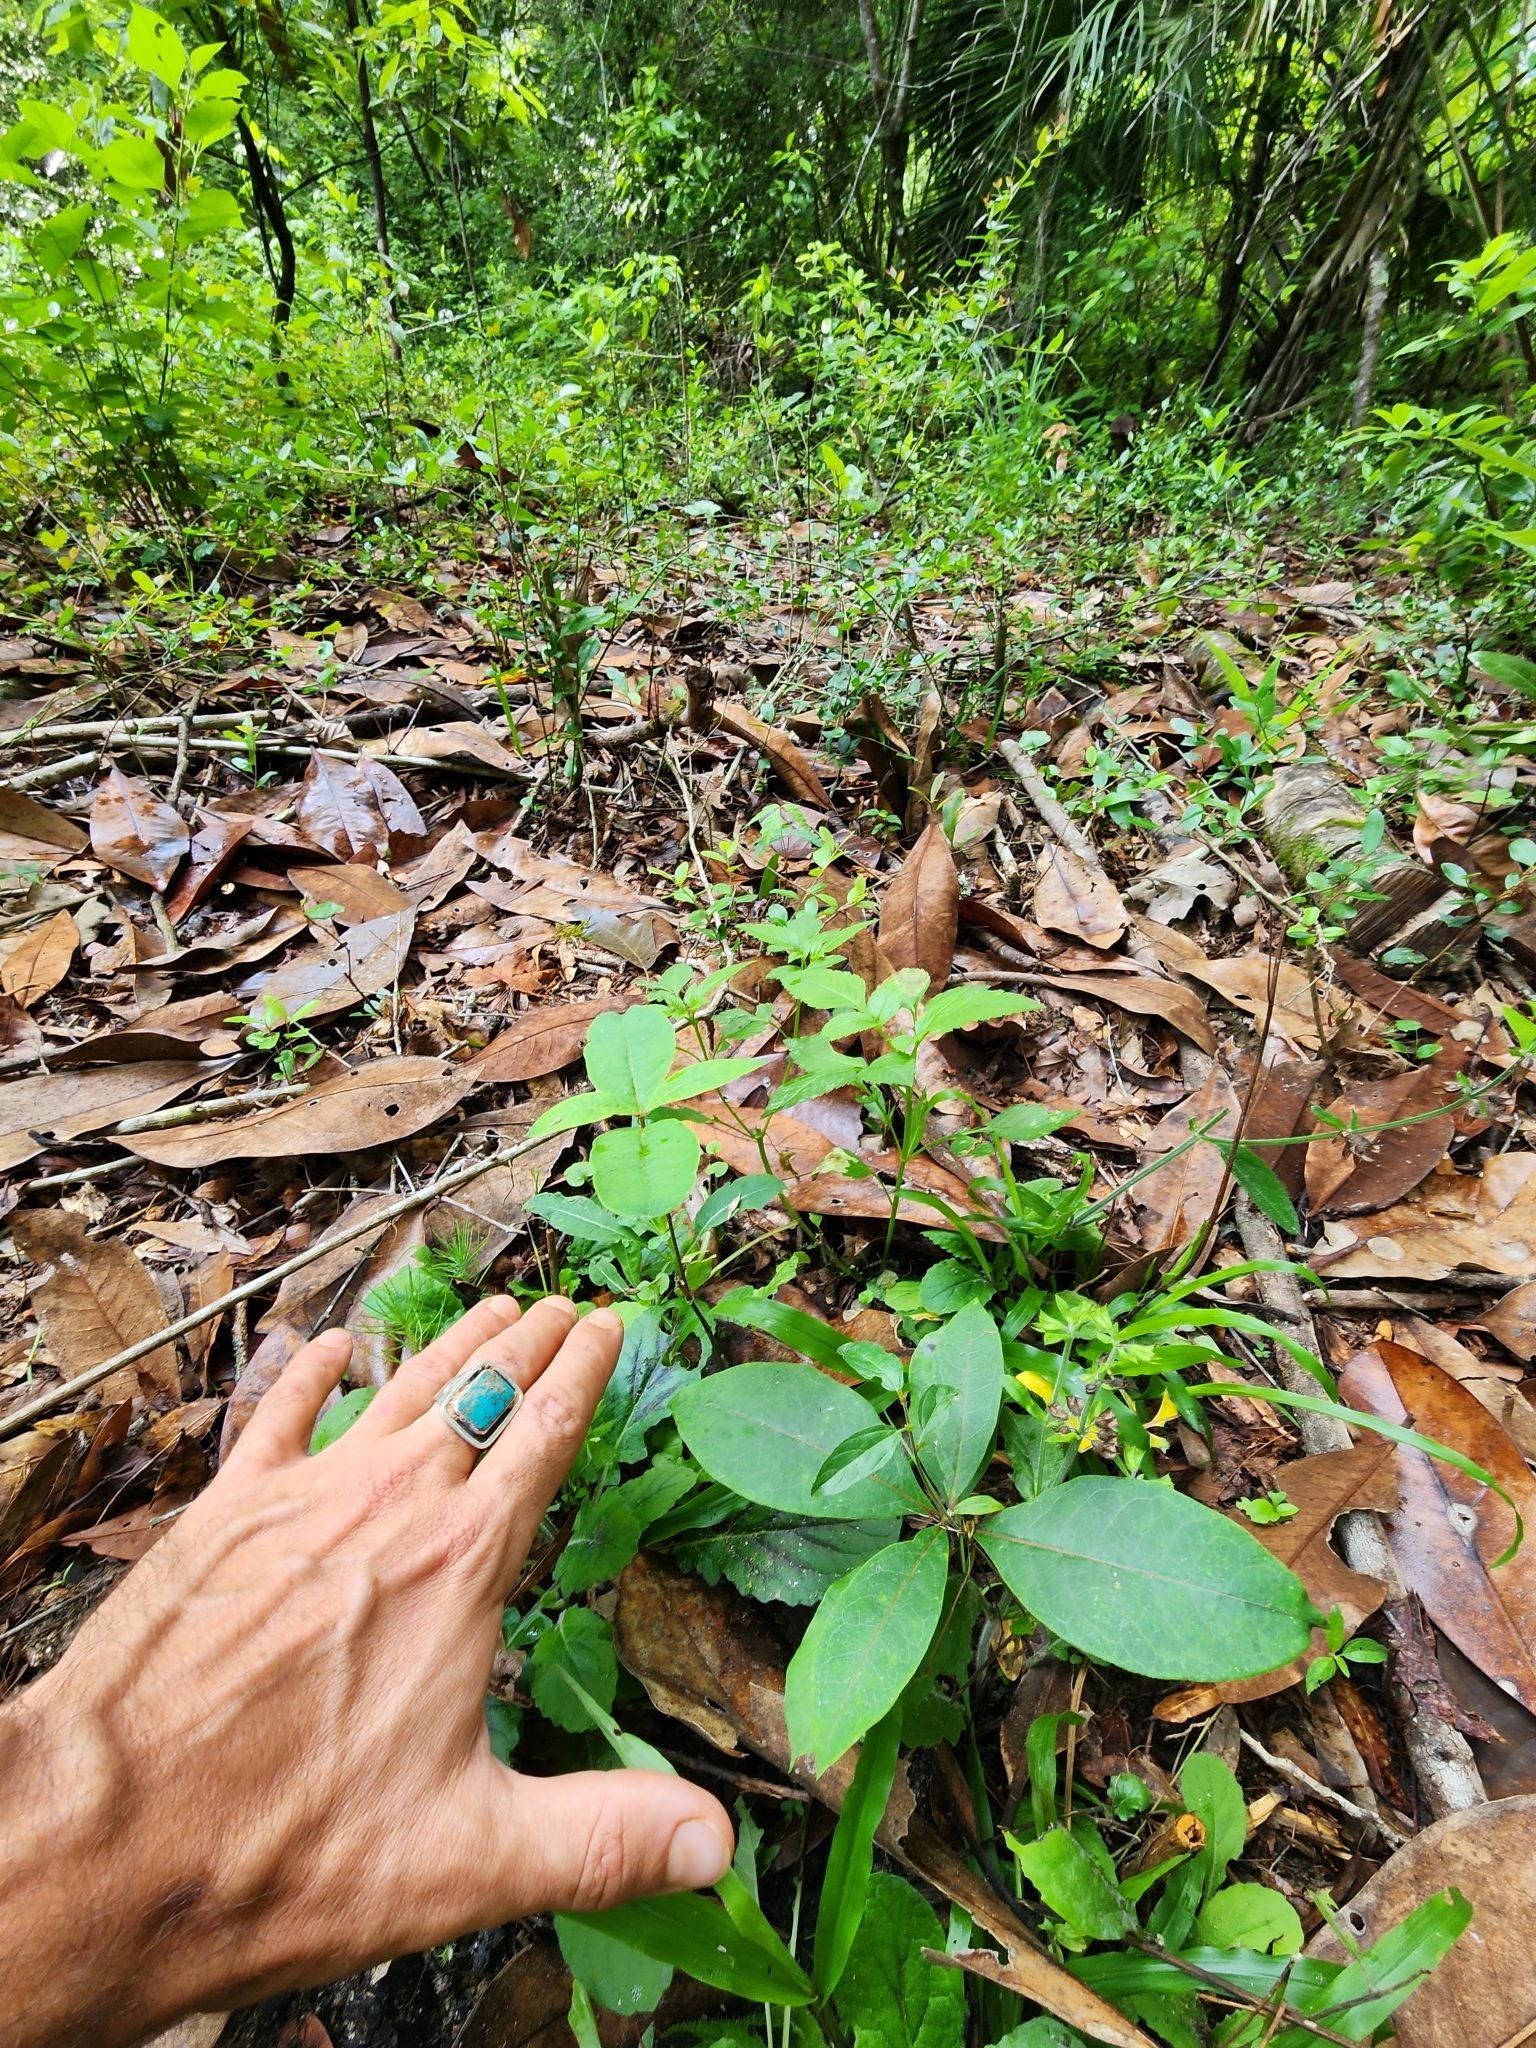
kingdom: Plantae
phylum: Tracheophyta
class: Magnoliopsida
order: Gentianales
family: Apocynaceae
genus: Asclepias
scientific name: Asclepias variegata
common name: Variegated milkweed
